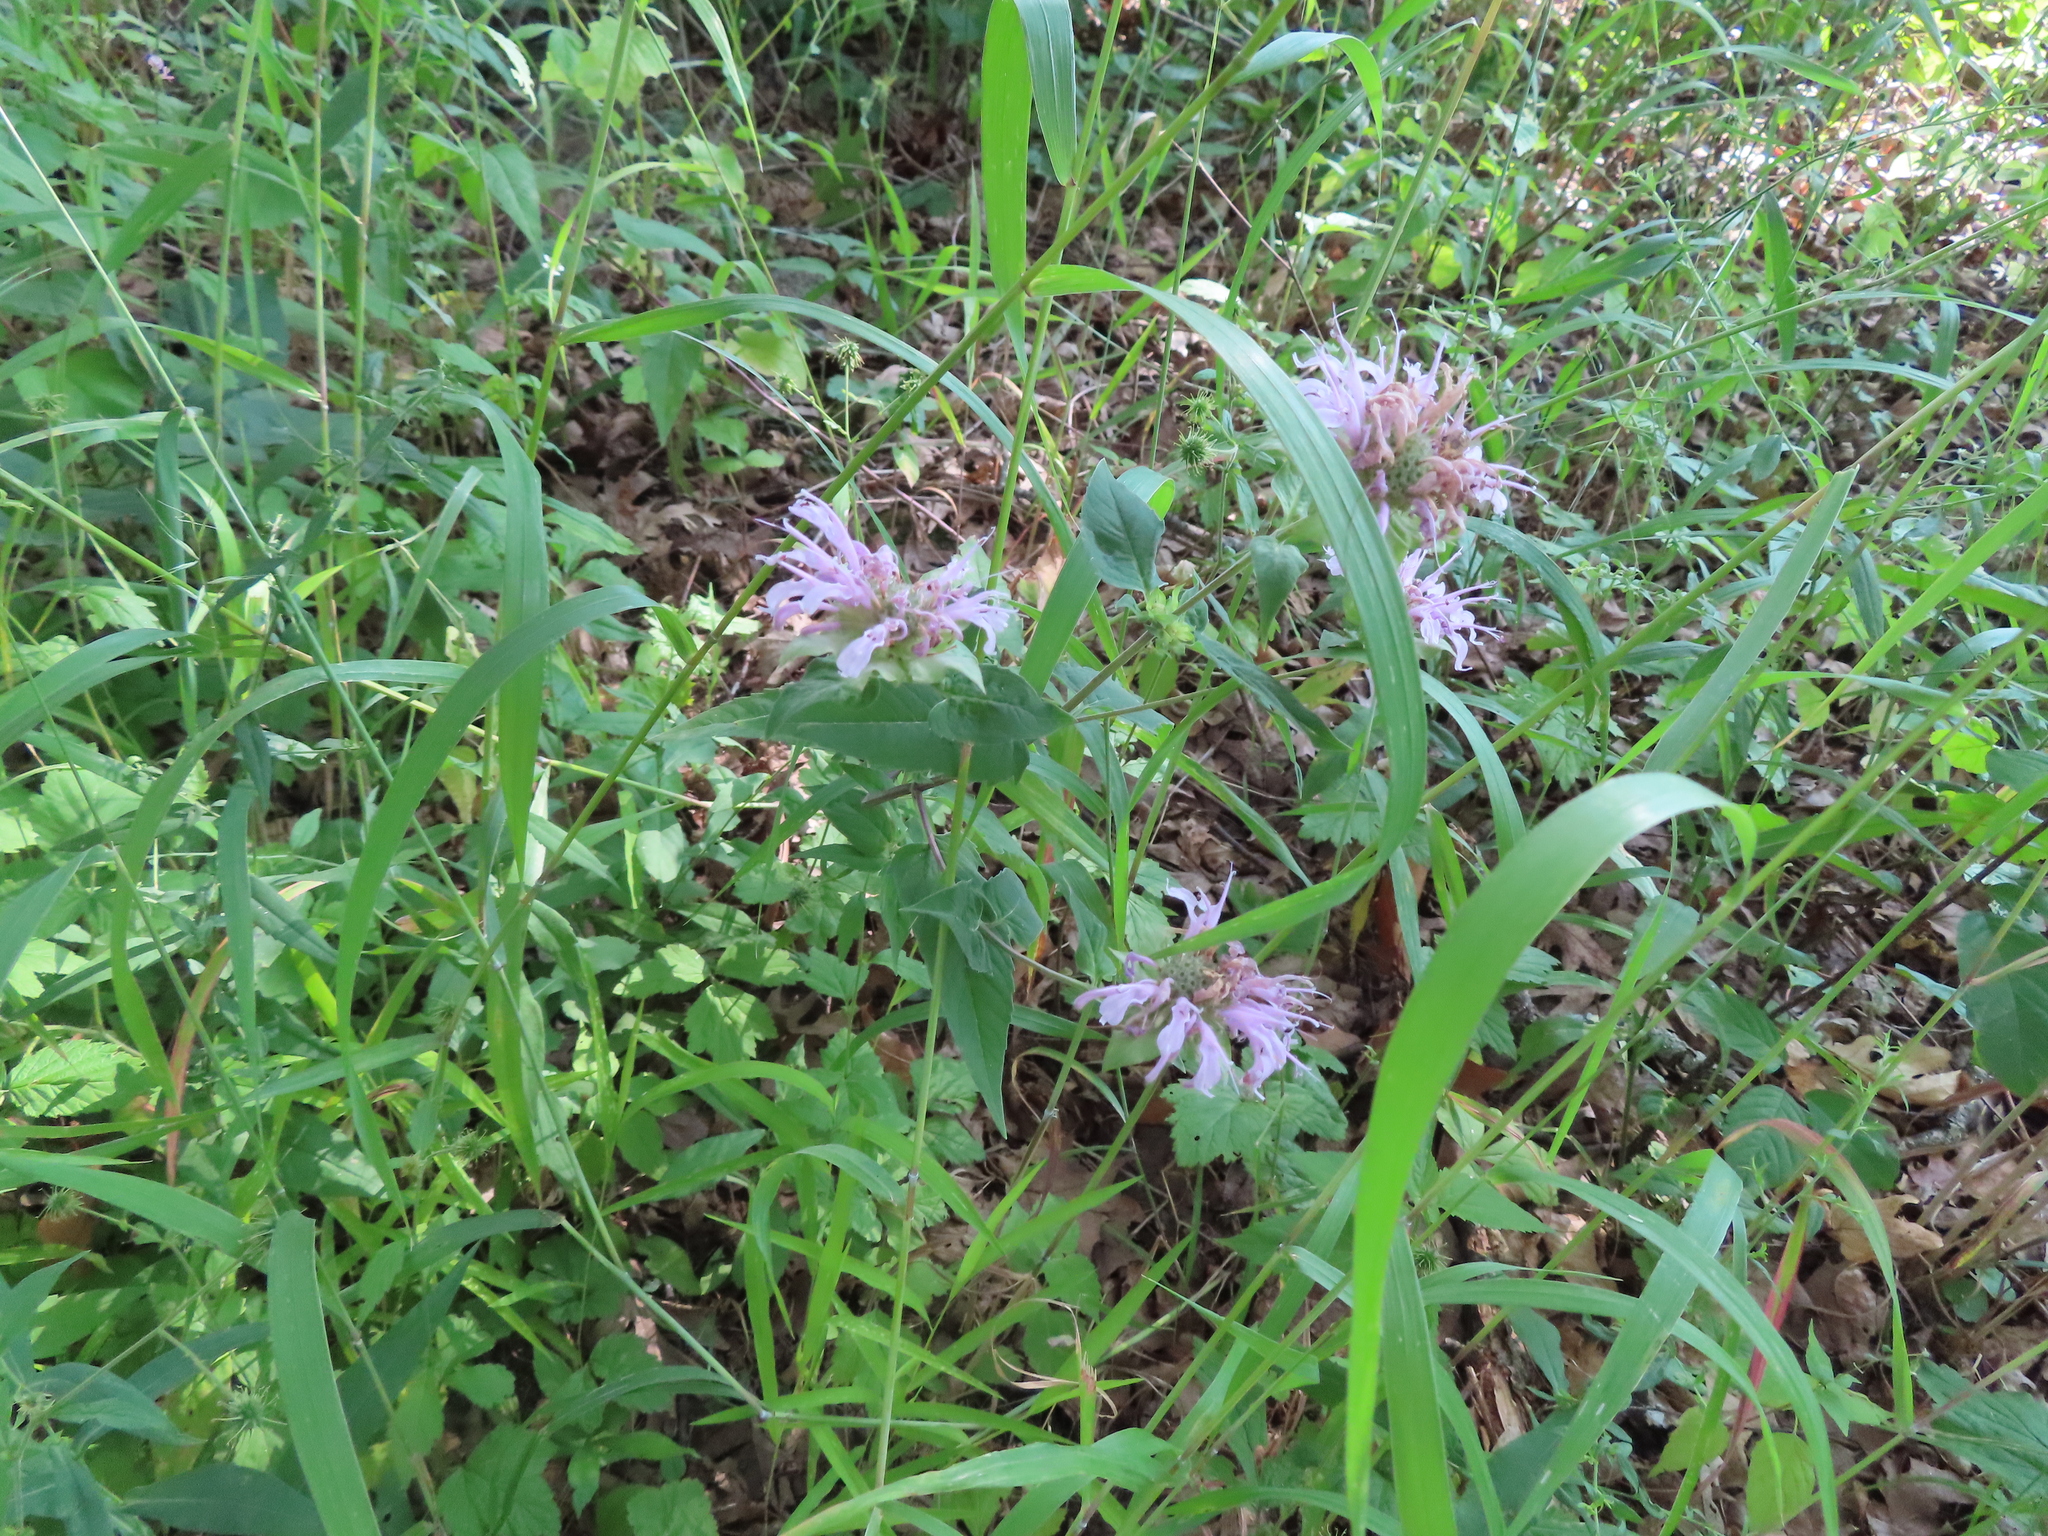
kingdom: Plantae
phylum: Tracheophyta
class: Magnoliopsida
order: Lamiales
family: Lamiaceae
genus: Monarda
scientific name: Monarda fistulosa
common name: Purple beebalm
